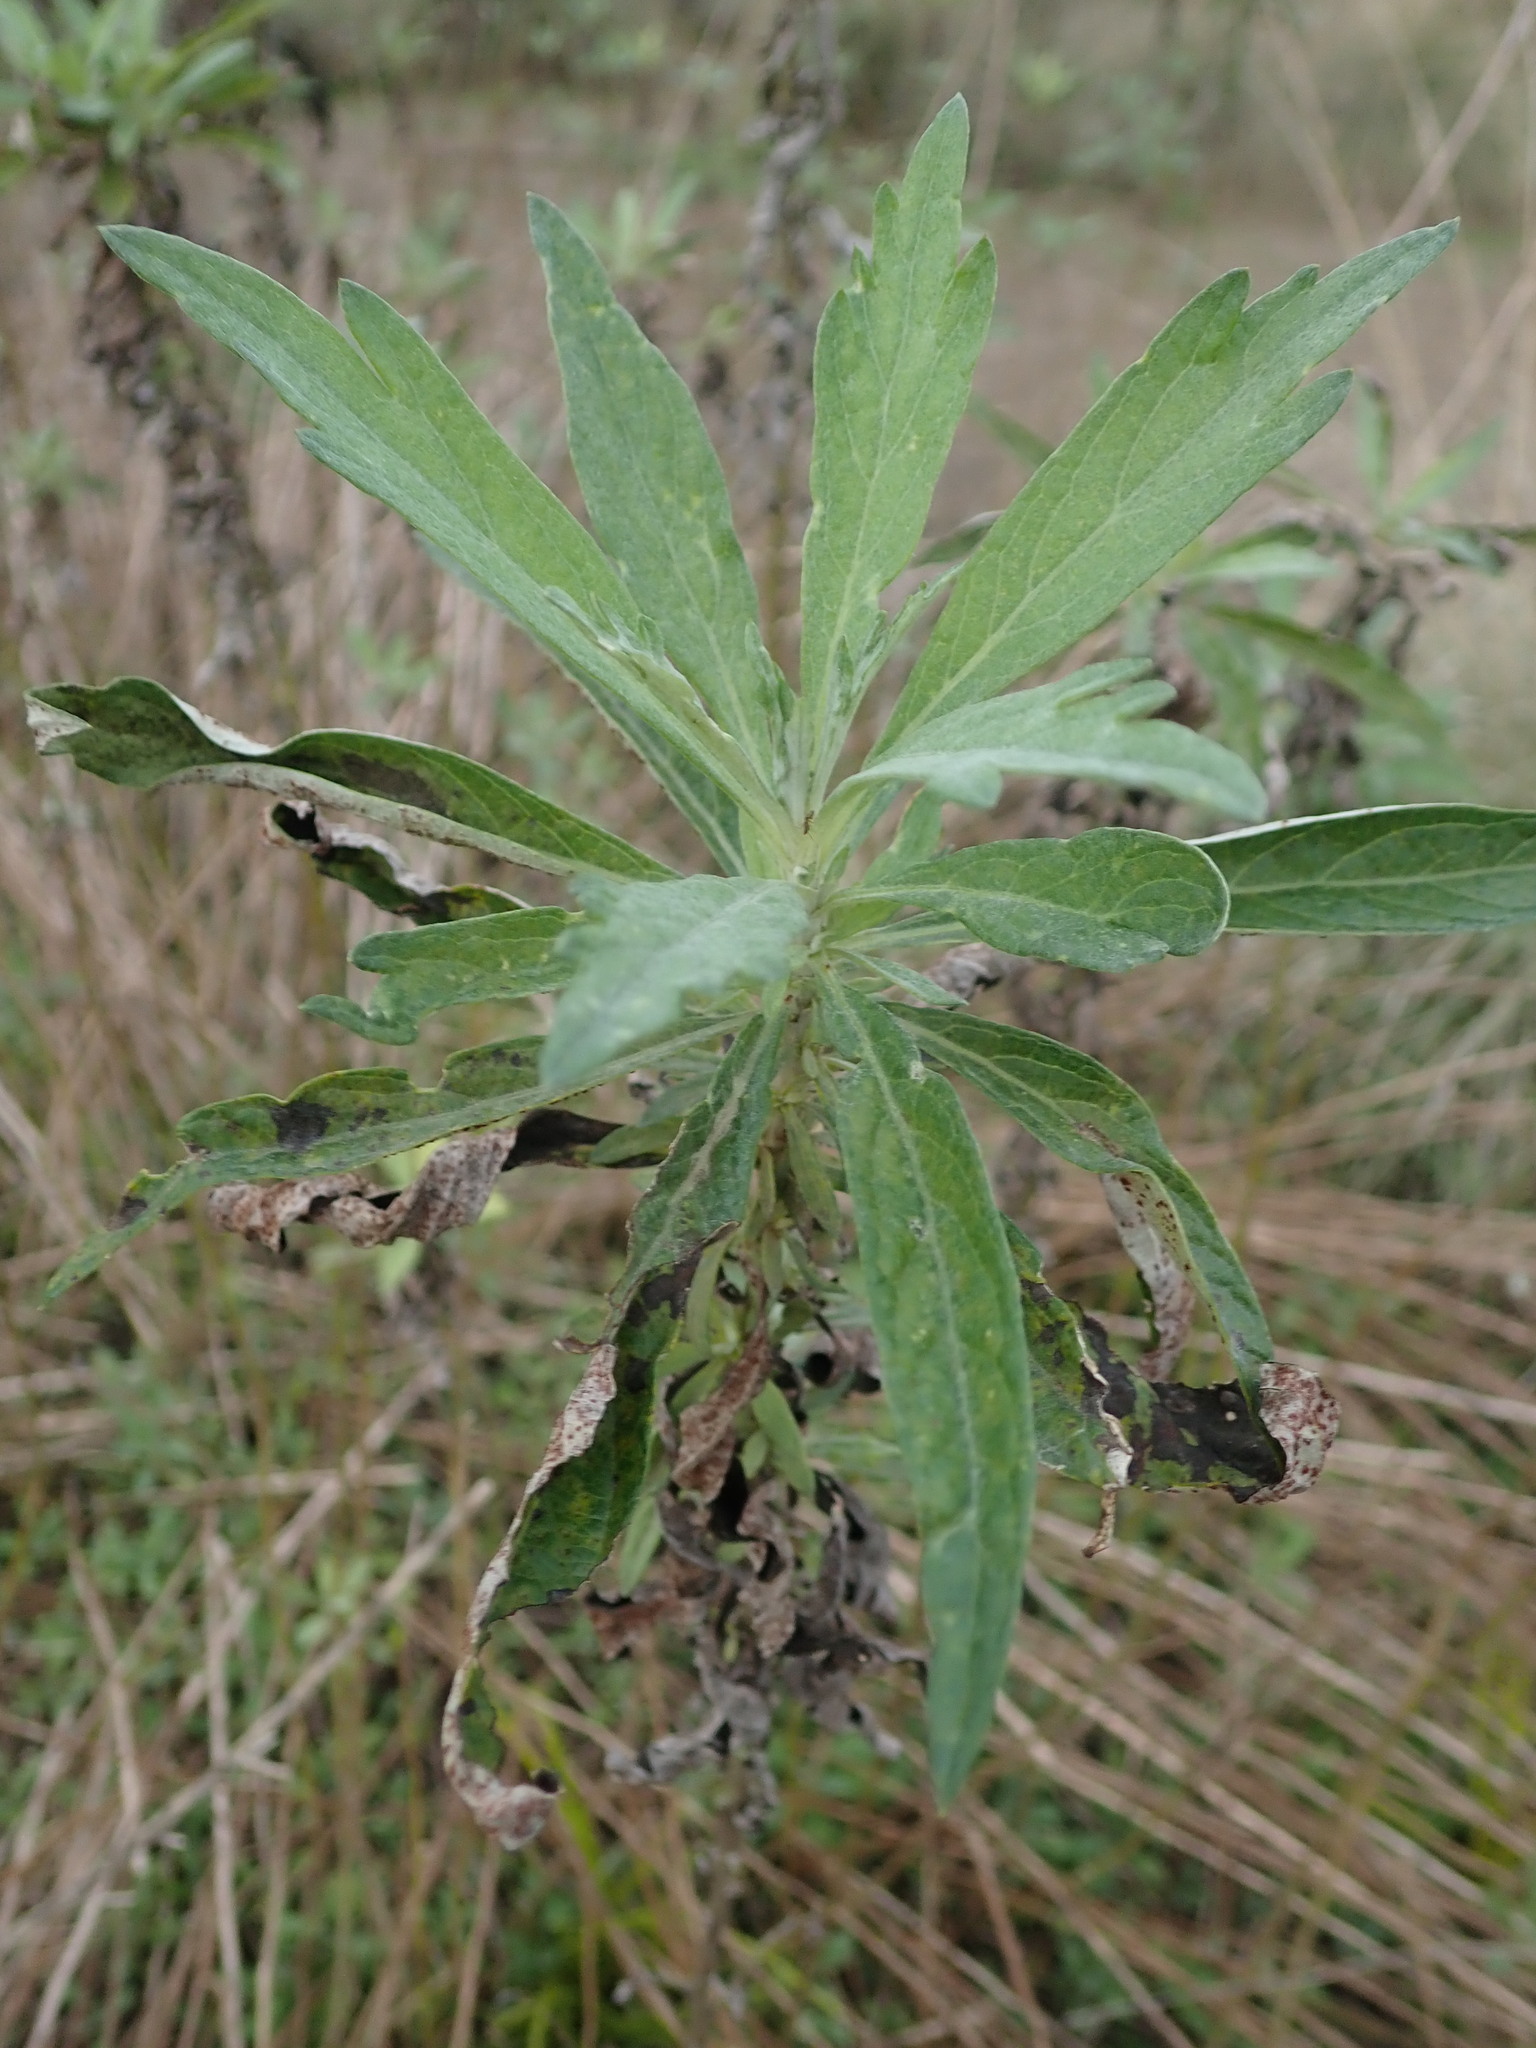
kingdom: Plantae
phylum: Tracheophyta
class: Magnoliopsida
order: Asterales
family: Asteraceae
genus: Artemisia
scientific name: Artemisia douglasiana
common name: Northwest mugwort
